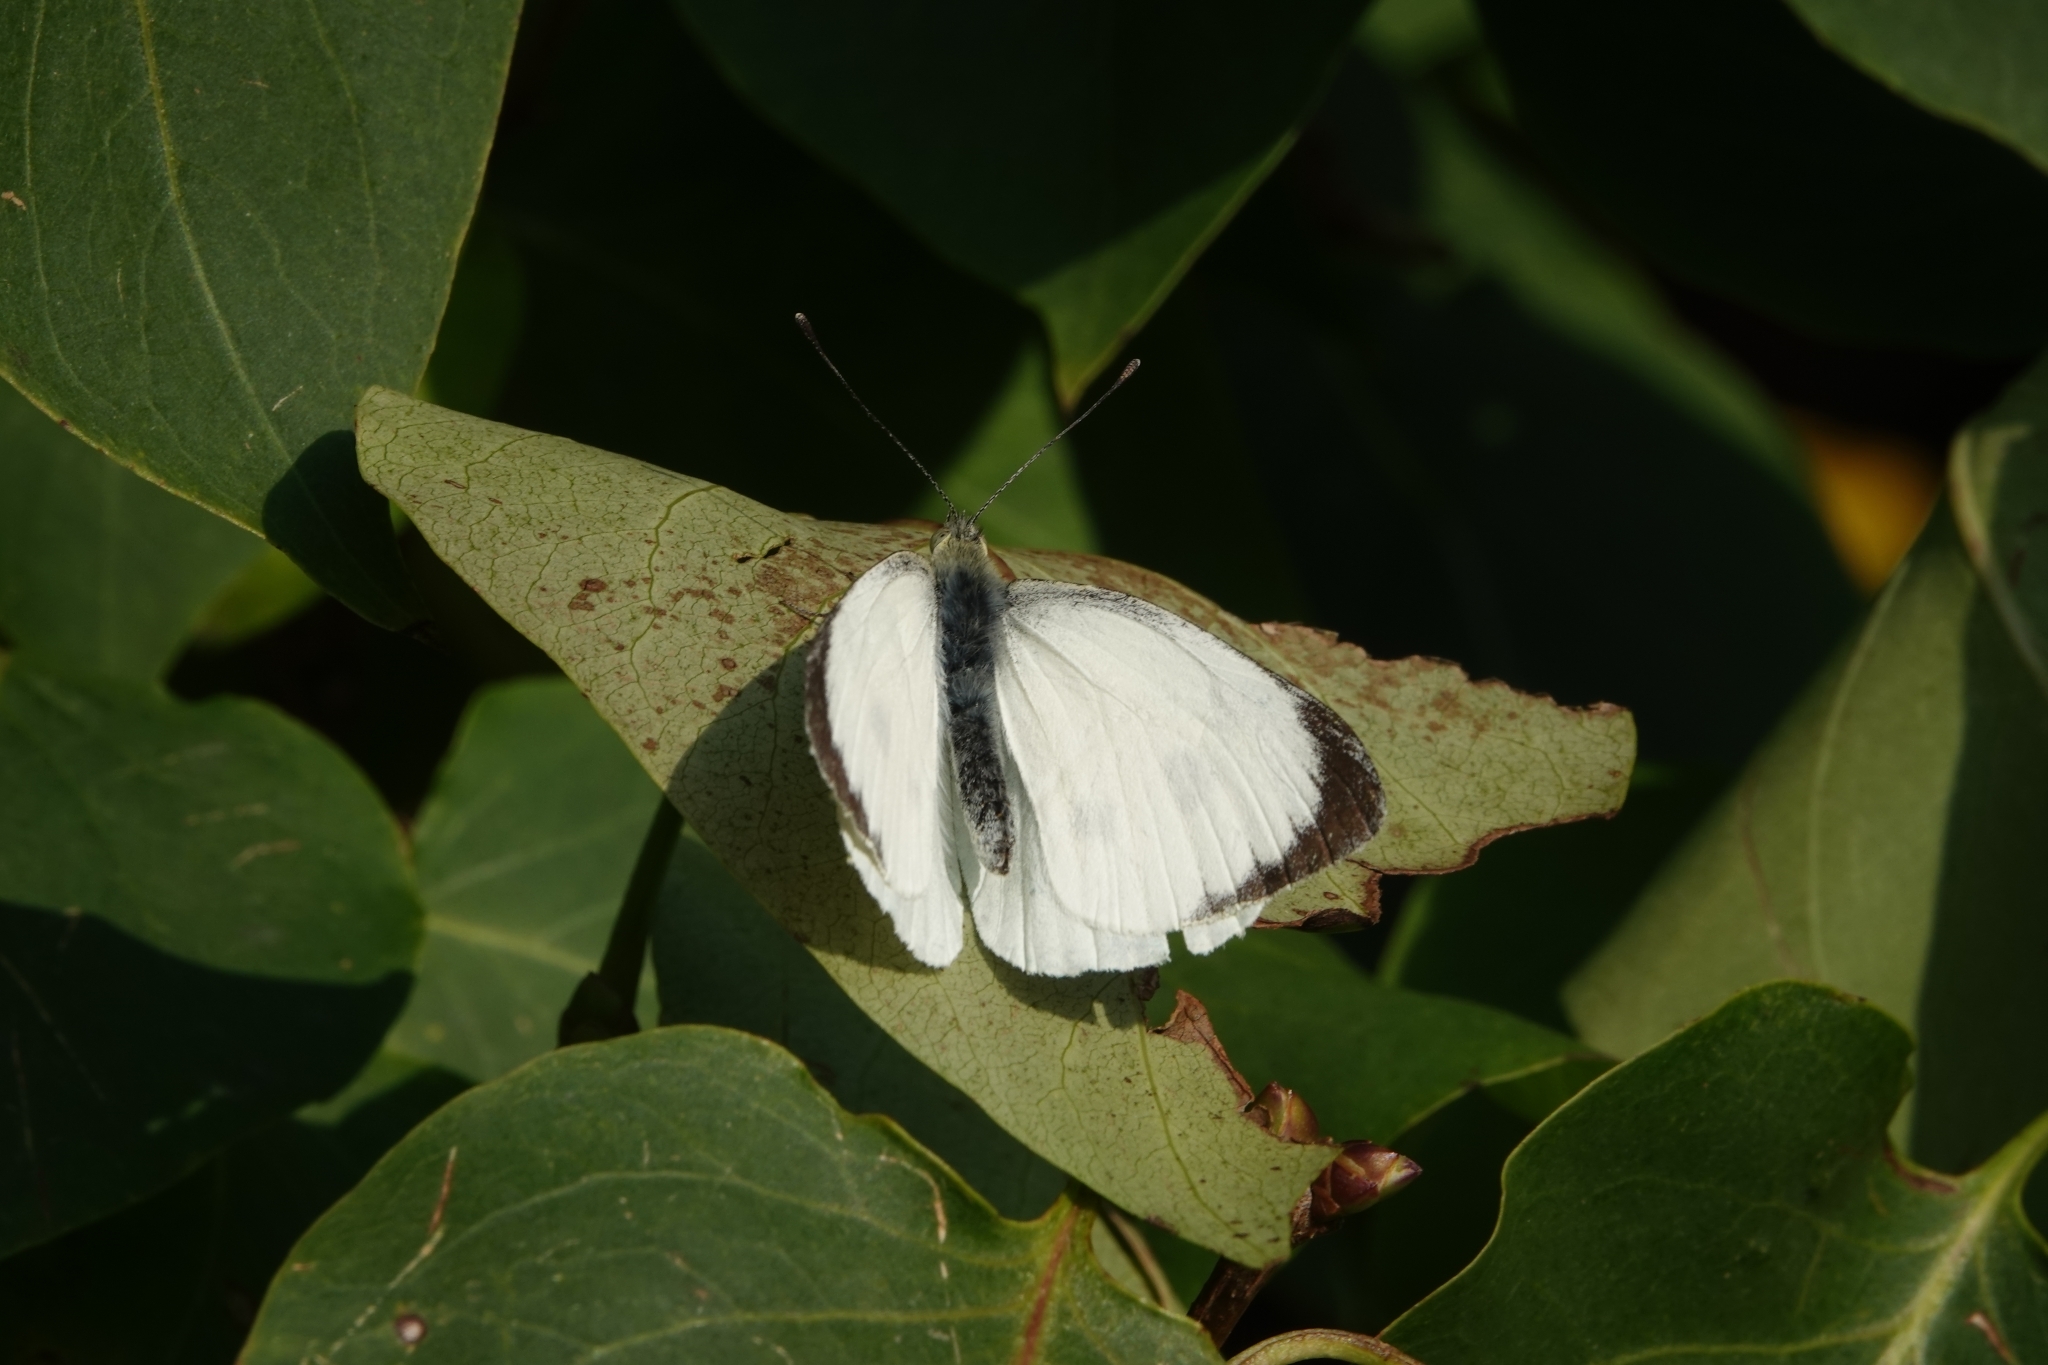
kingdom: Animalia
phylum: Arthropoda
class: Insecta
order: Lepidoptera
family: Pieridae
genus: Pieris
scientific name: Pieris brassicae
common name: Large white
